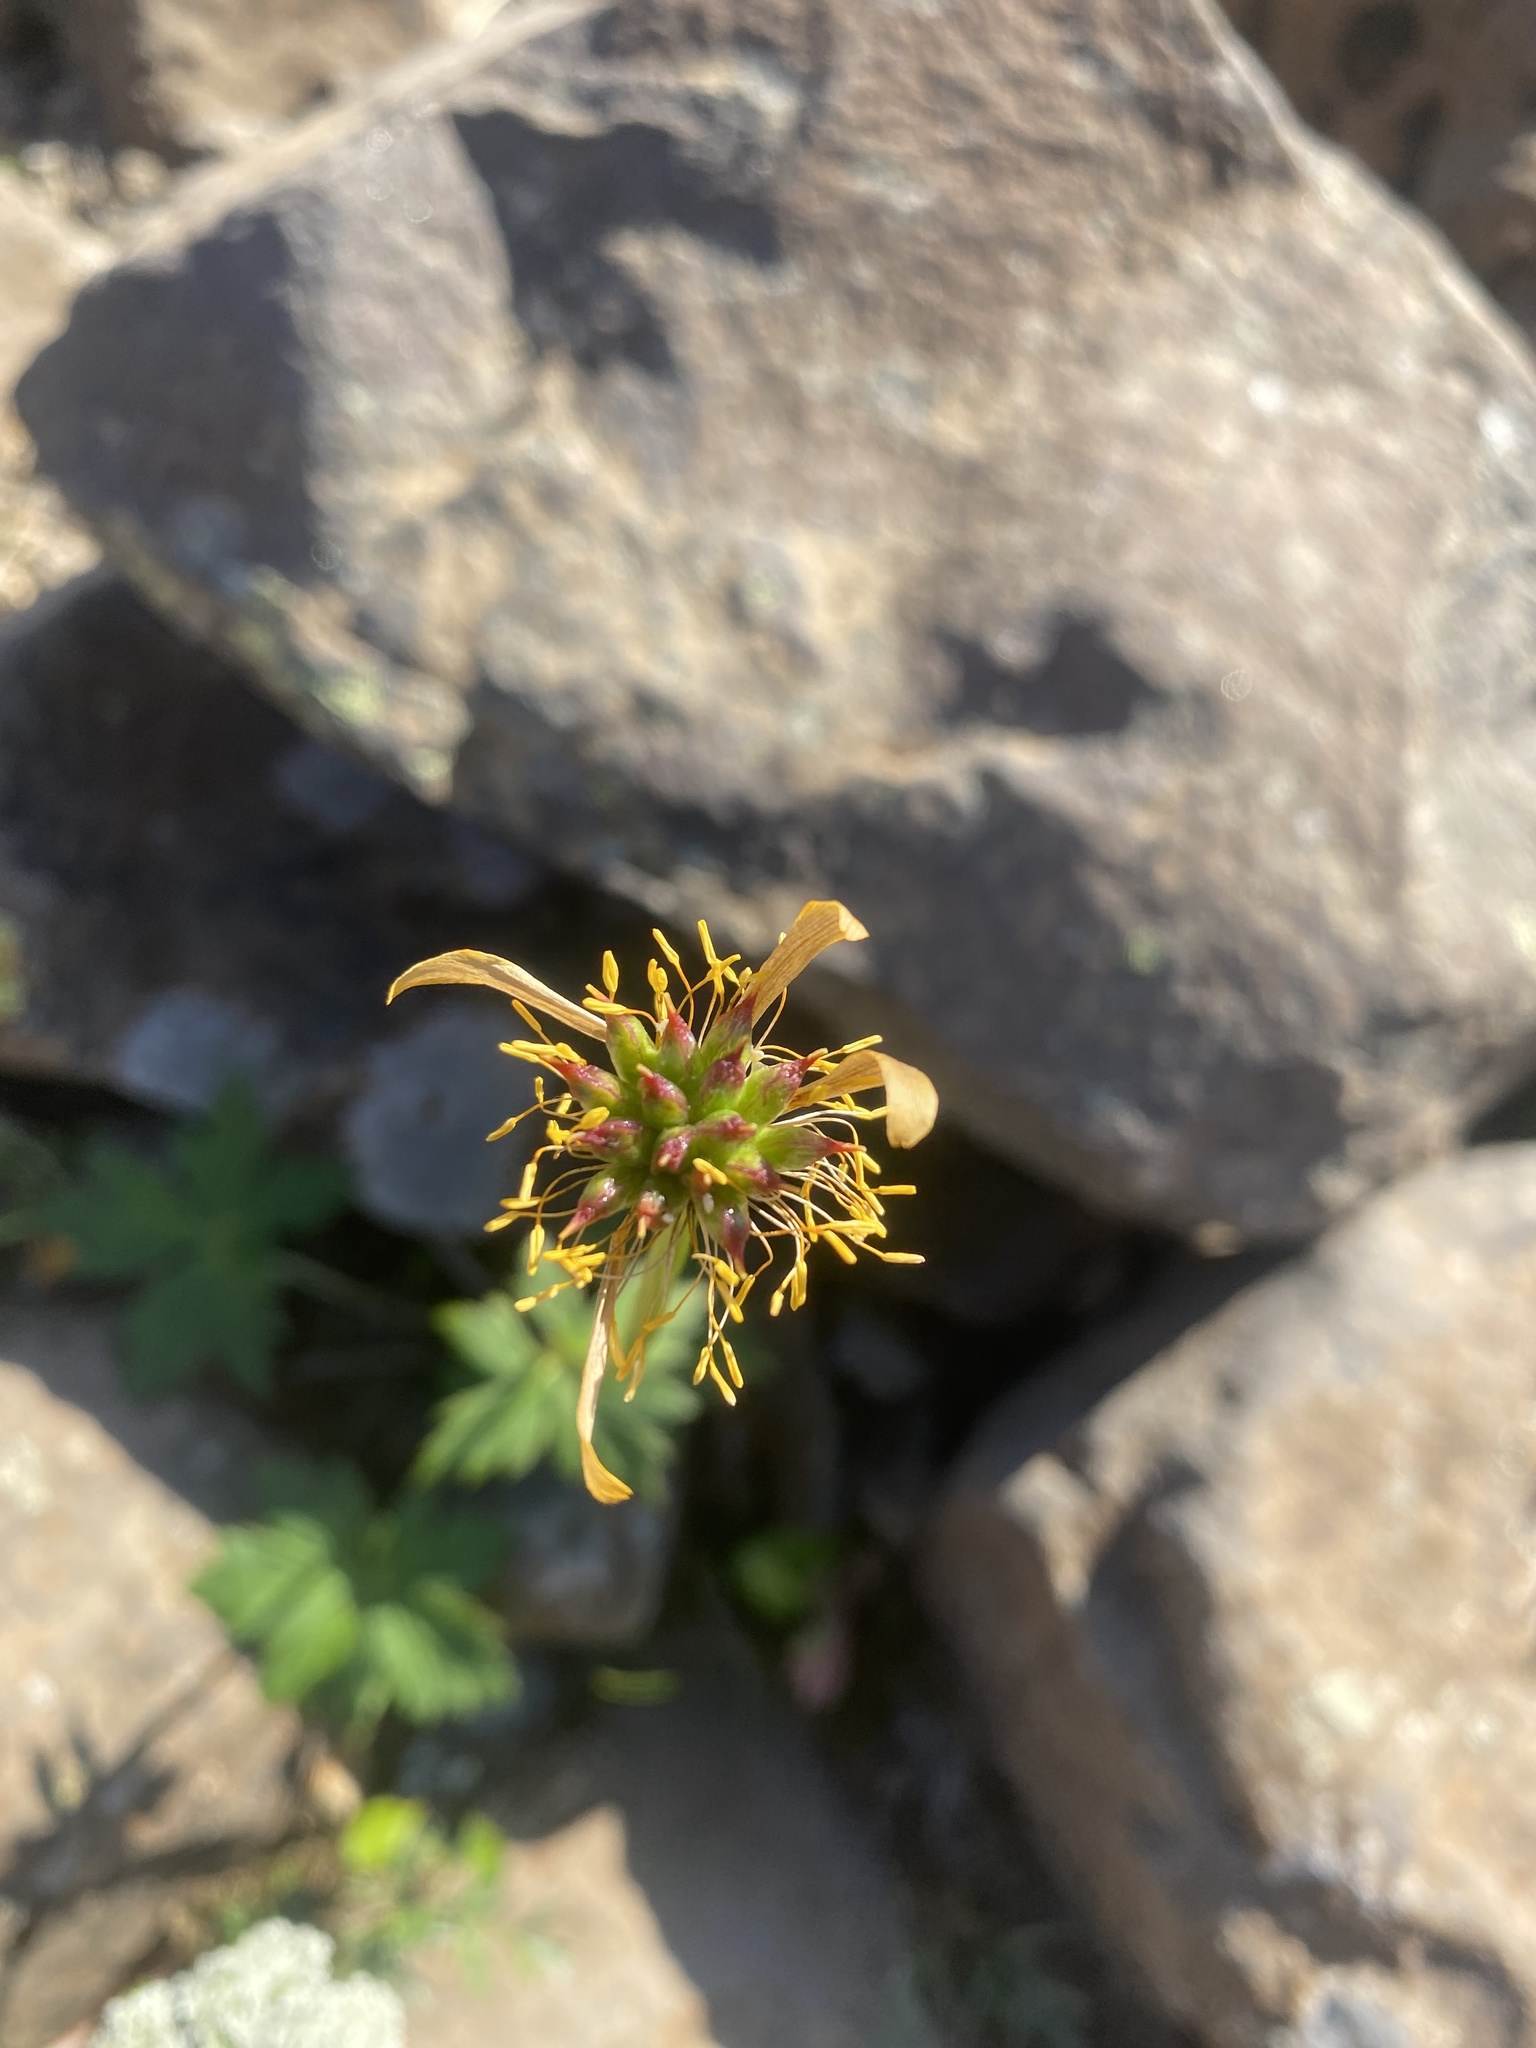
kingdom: Plantae
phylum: Tracheophyta
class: Magnoliopsida
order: Ranunculales
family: Ranunculaceae
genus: Trollius
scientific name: Trollius sibiricus
